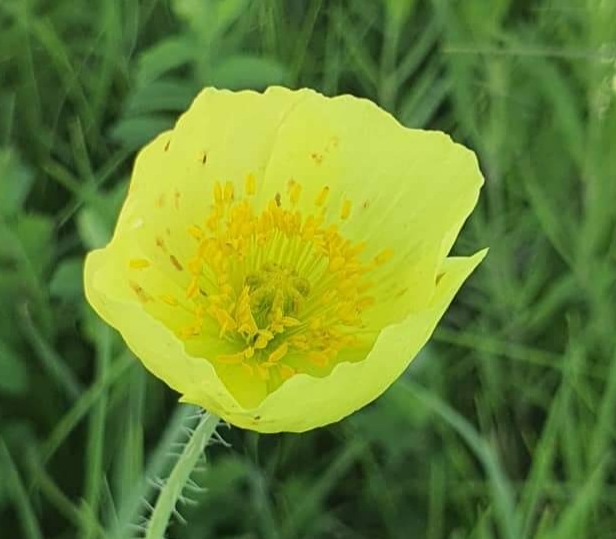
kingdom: Plantae
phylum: Tracheophyta
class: Magnoliopsida
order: Ranunculales
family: Papaveraceae
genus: Papaver
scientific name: Papaver nudicaule
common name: Arctic poppy
